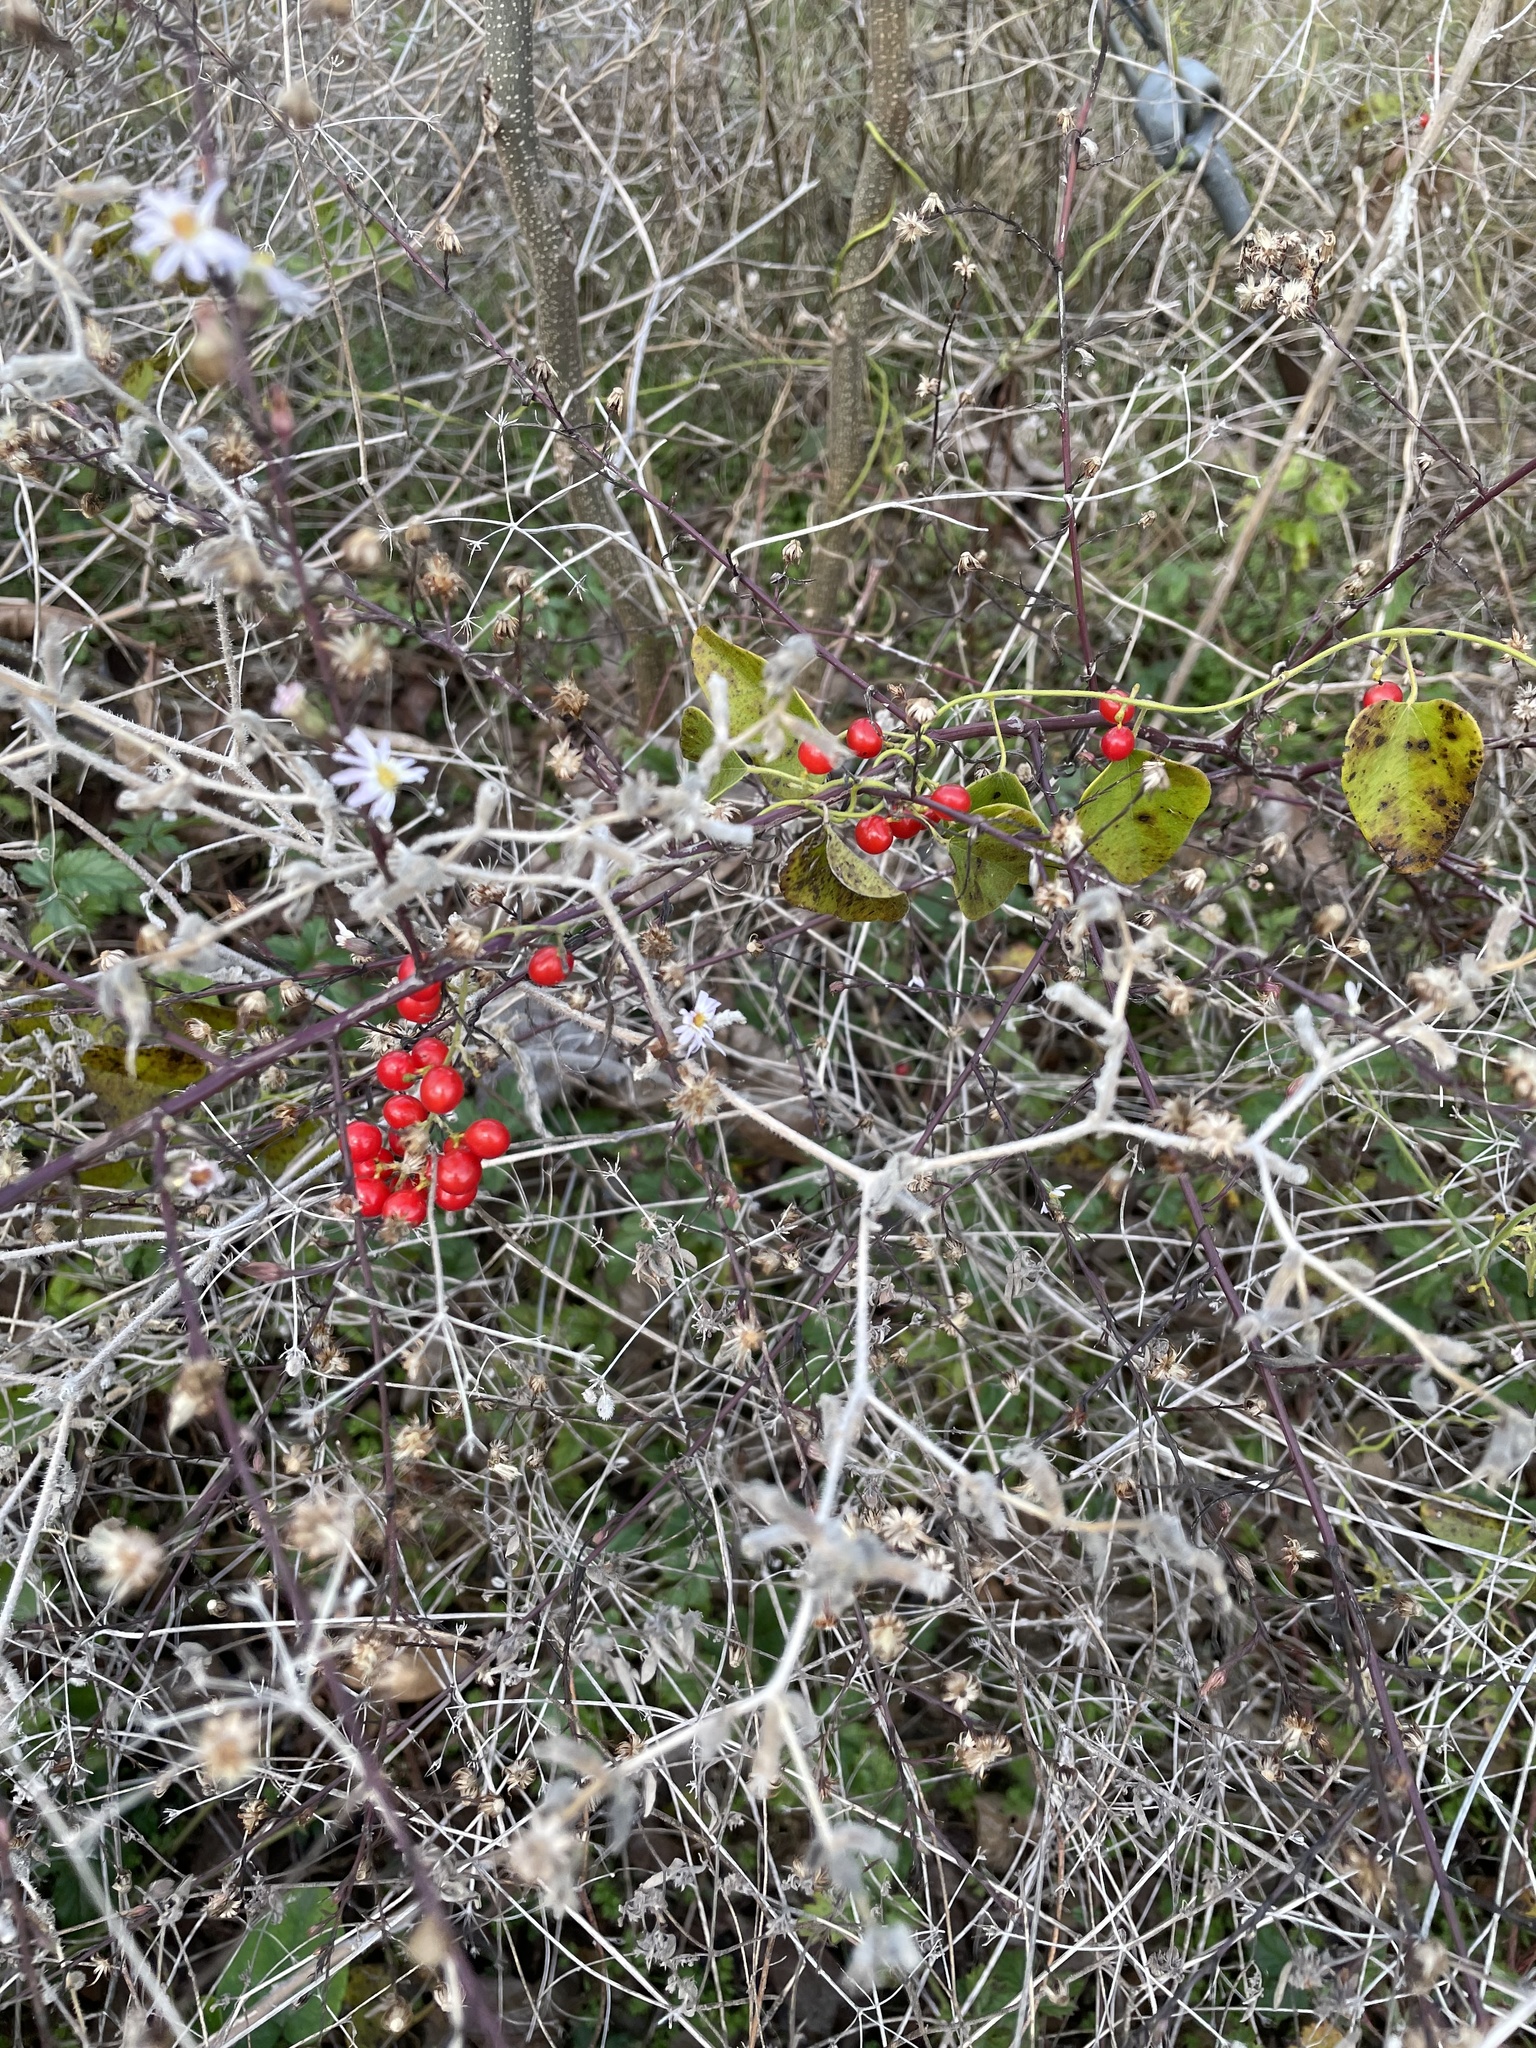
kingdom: Plantae
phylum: Tracheophyta
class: Magnoliopsida
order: Ranunculales
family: Menispermaceae
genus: Cocculus
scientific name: Cocculus carolinus
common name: Carolina moonseed
